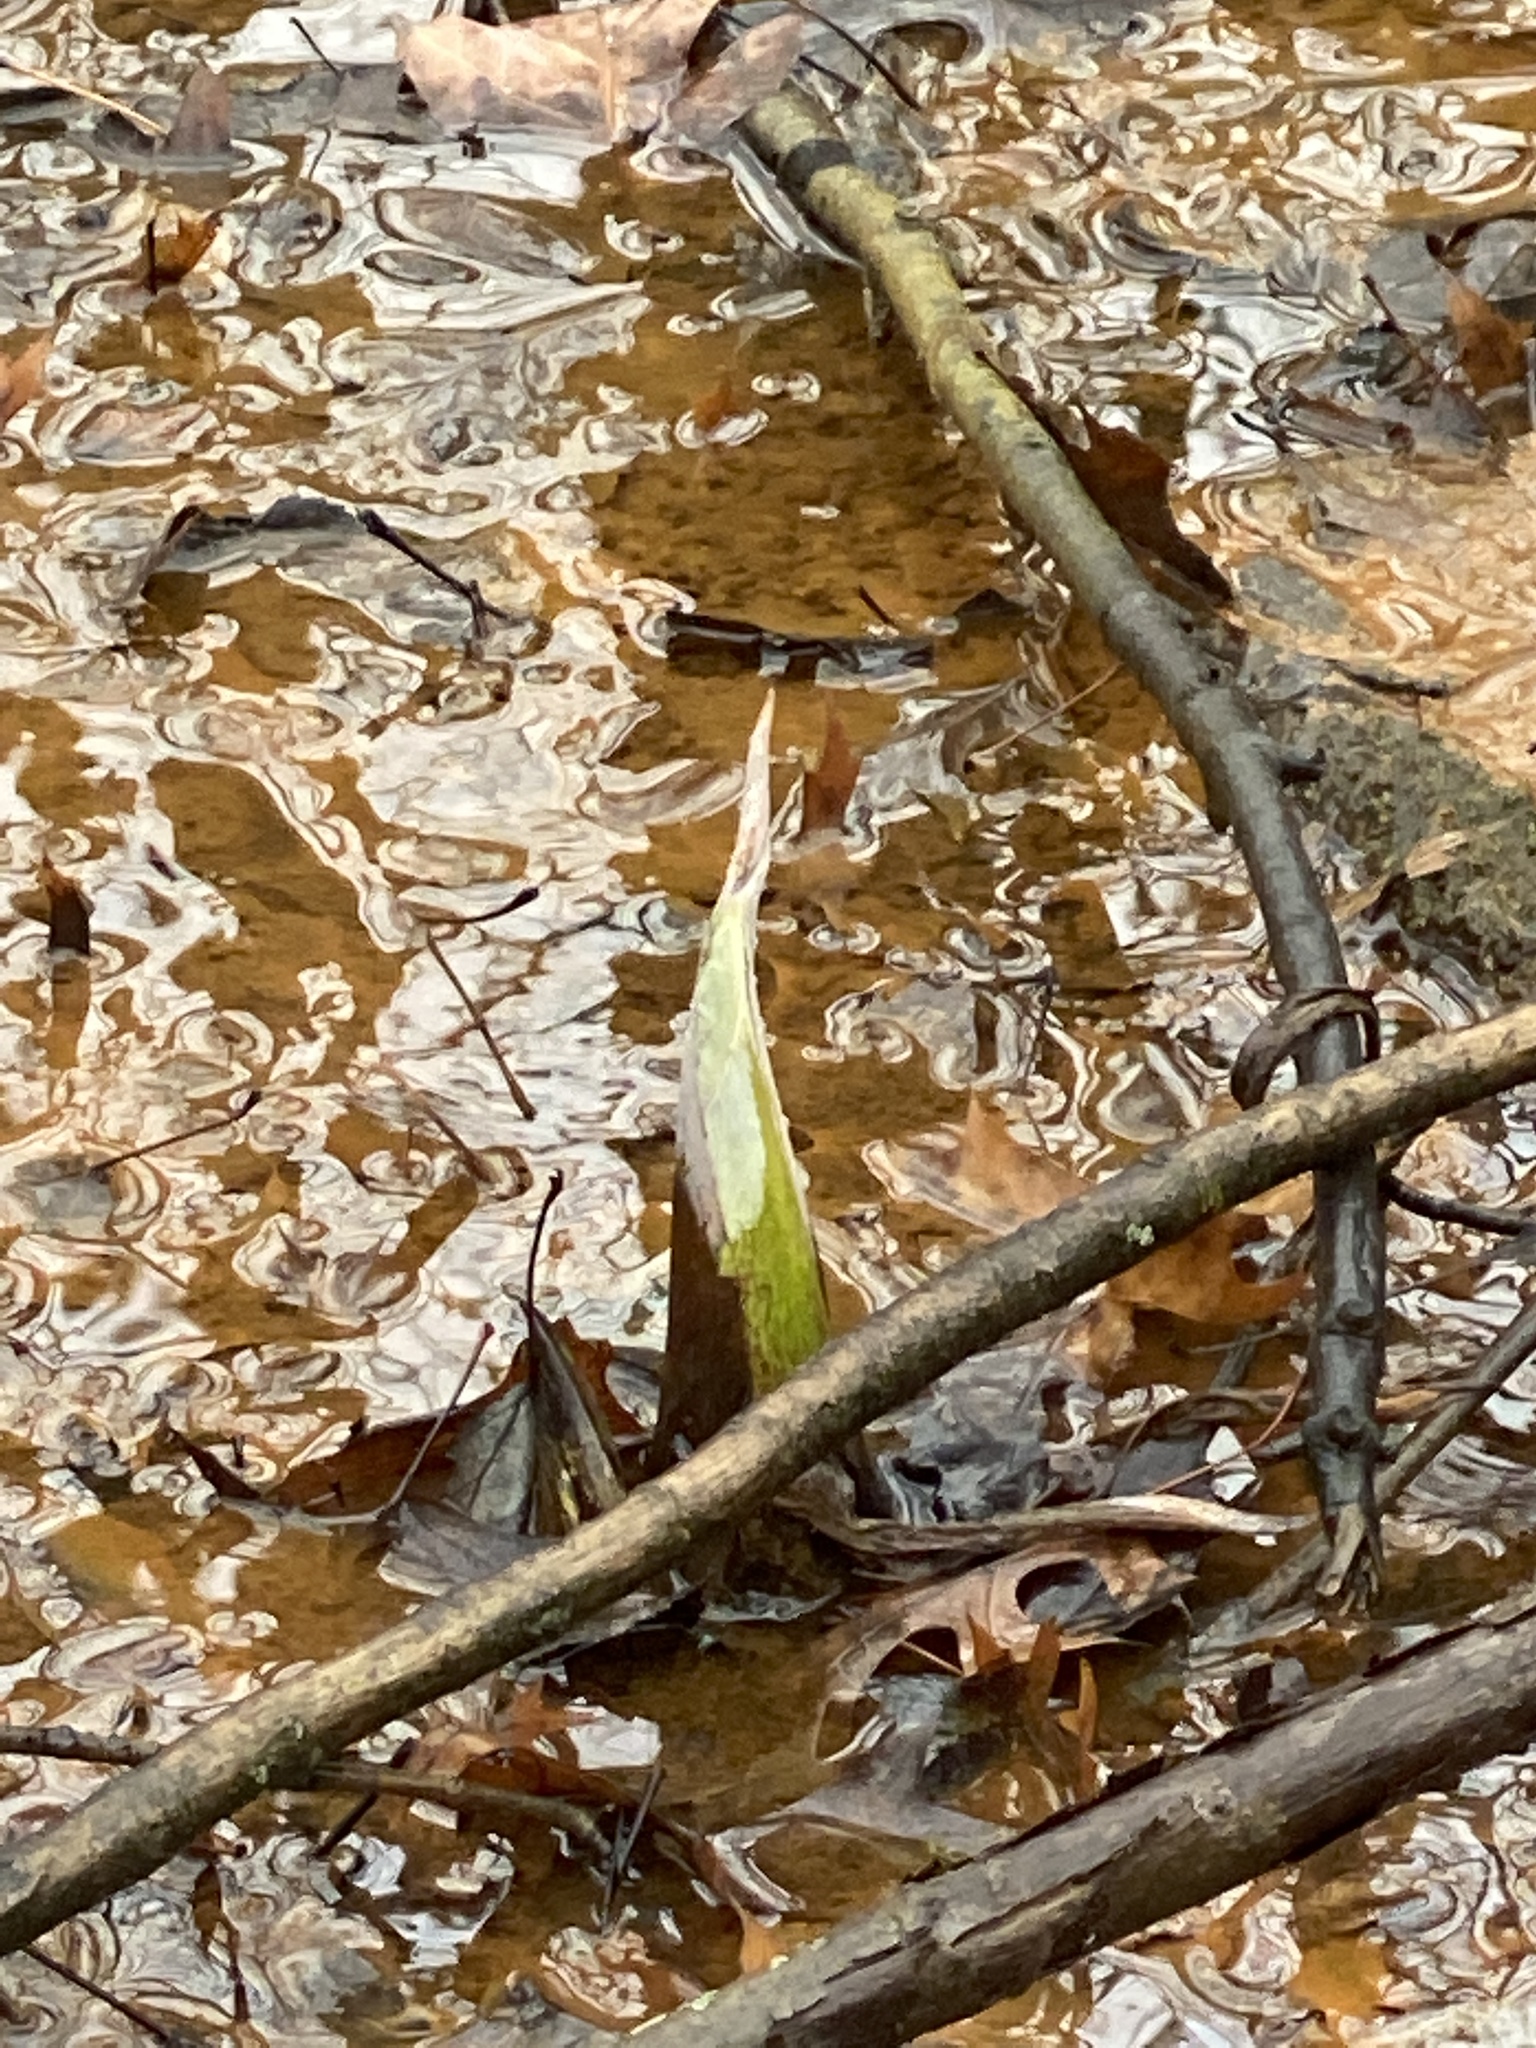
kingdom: Plantae
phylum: Tracheophyta
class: Liliopsida
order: Alismatales
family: Araceae
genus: Symplocarpus
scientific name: Symplocarpus foetidus
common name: Eastern skunk cabbage
